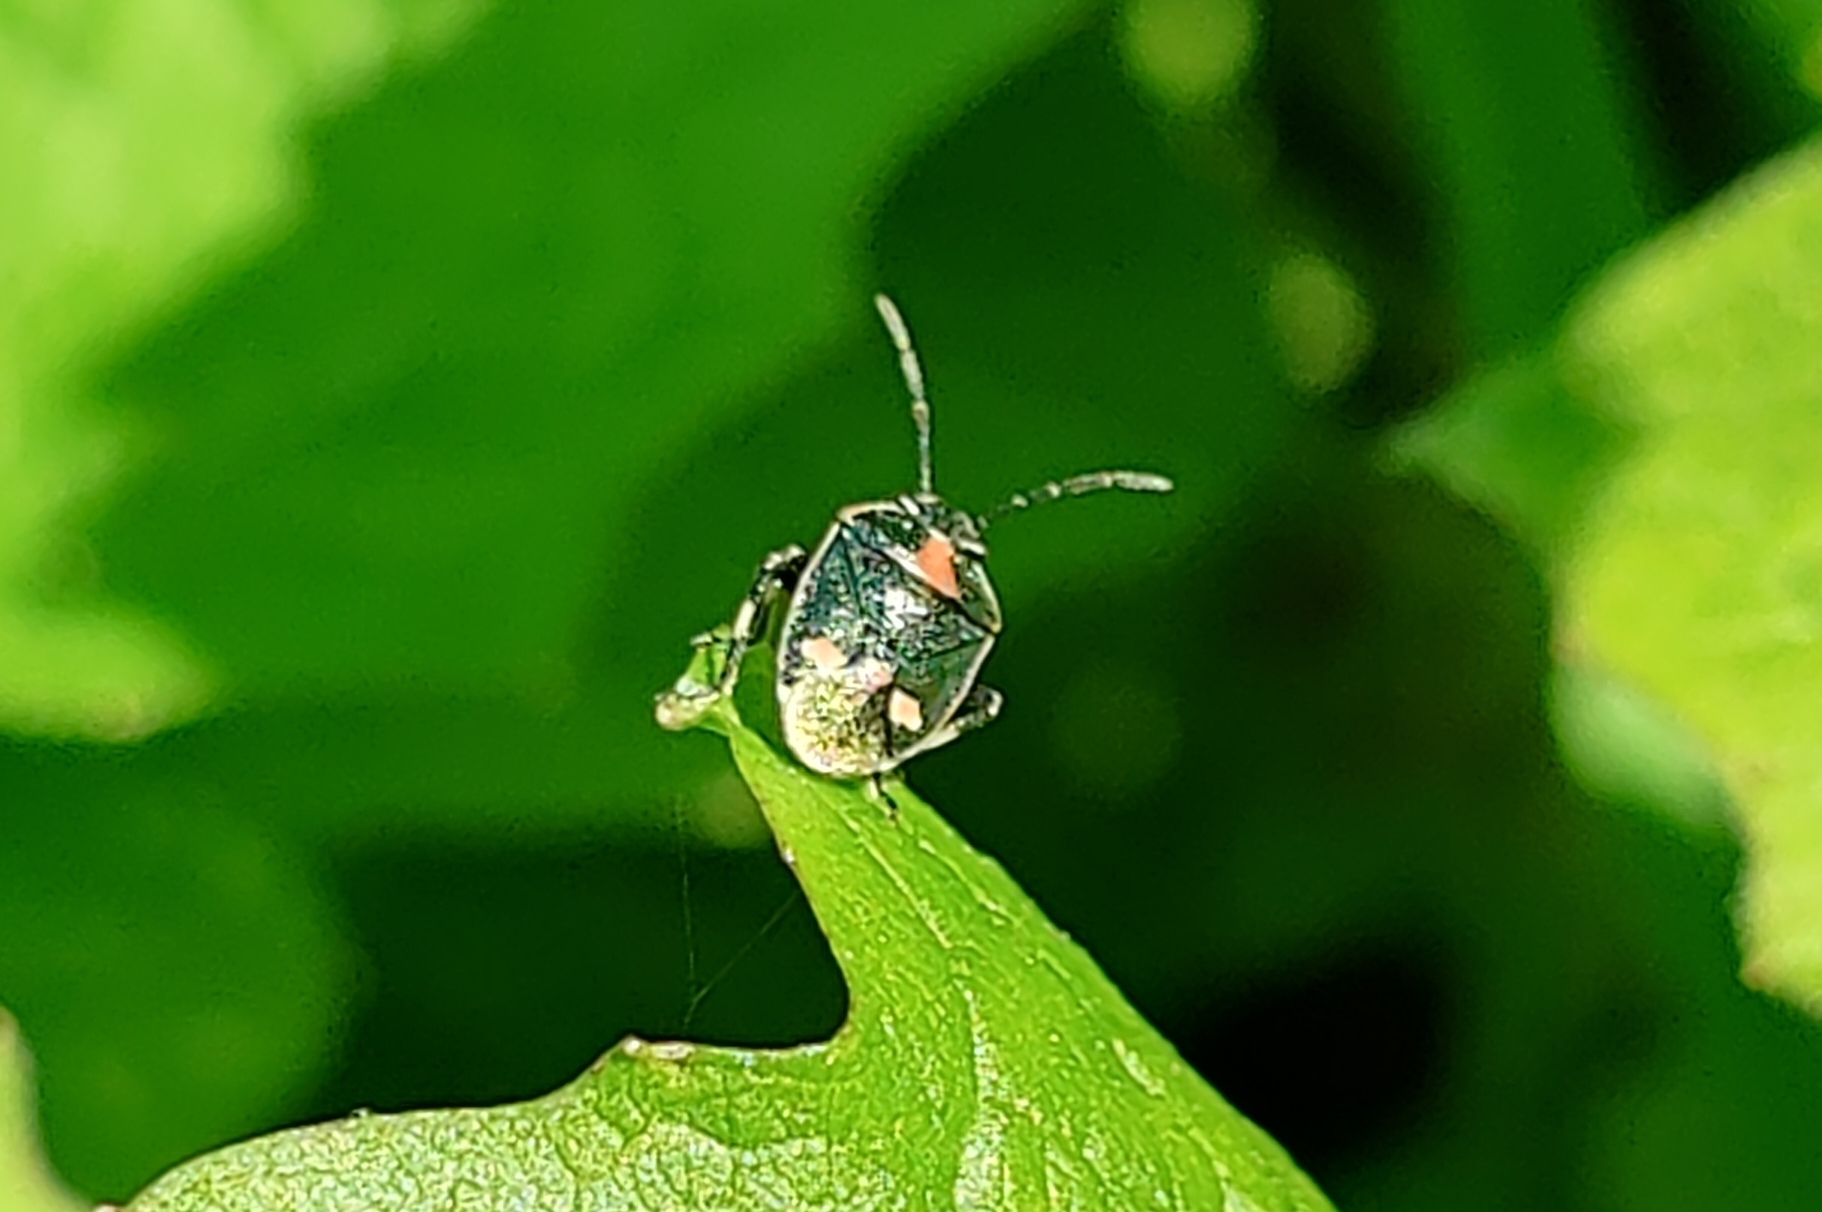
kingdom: Animalia
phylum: Arthropoda
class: Insecta
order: Hemiptera
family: Pentatomidae
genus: Eurydema
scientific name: Eurydema oleracea
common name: Cabbage bug
